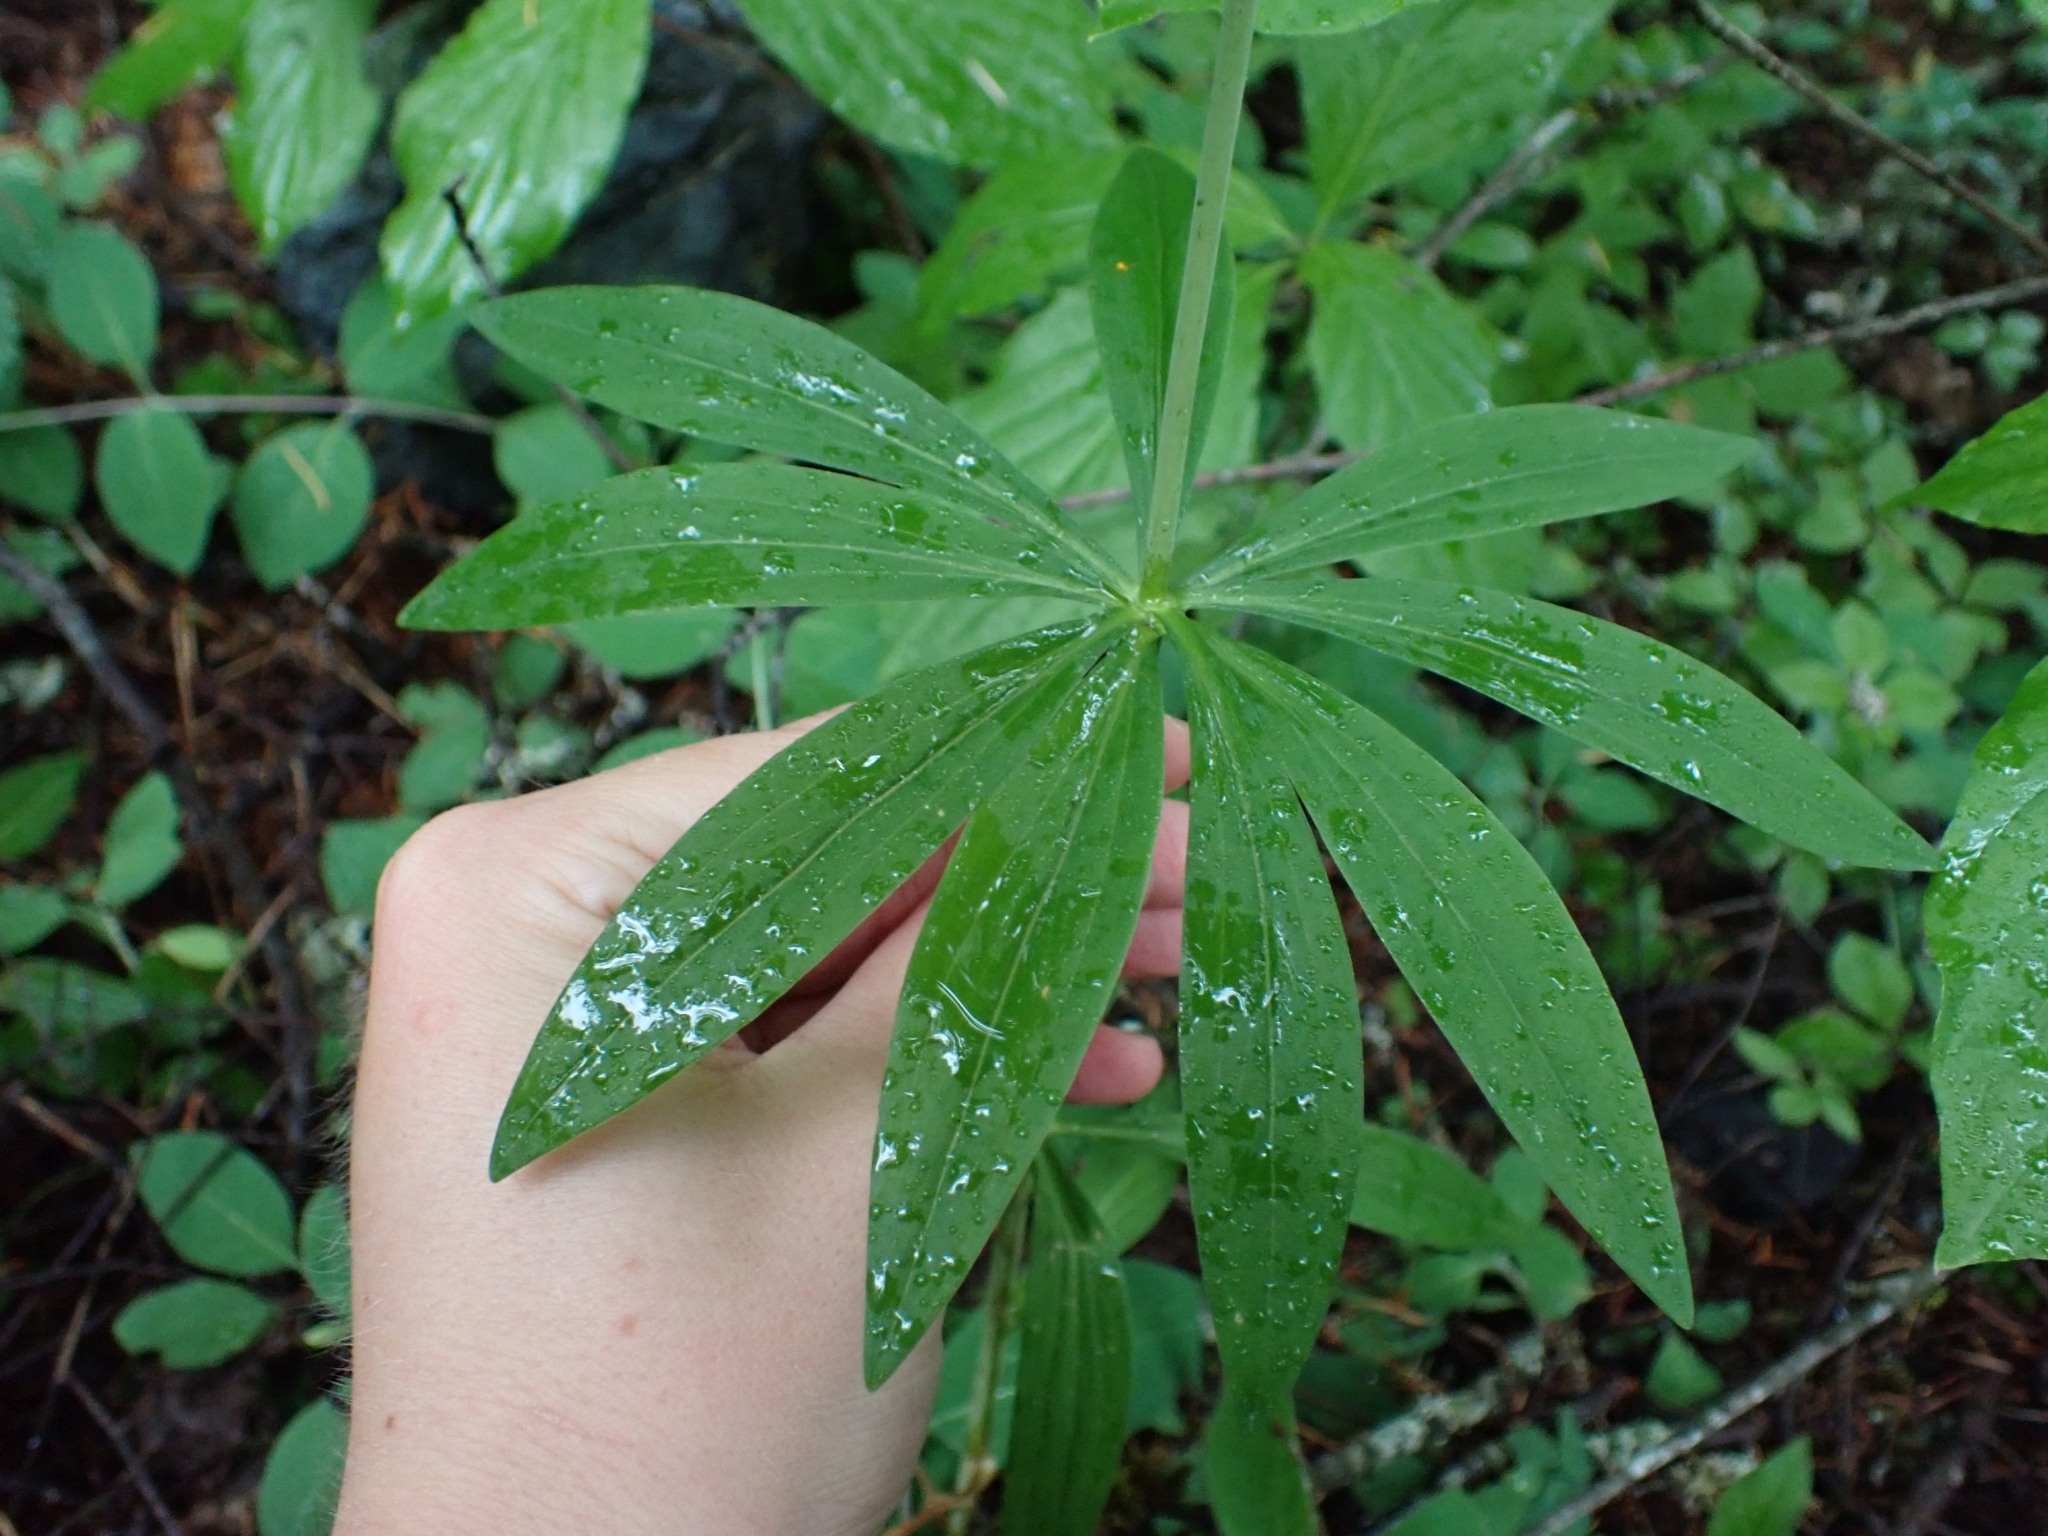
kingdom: Plantae
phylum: Tracheophyta
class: Liliopsida
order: Liliales
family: Liliaceae
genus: Lilium
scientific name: Lilium columbianum
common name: Columbia lily
